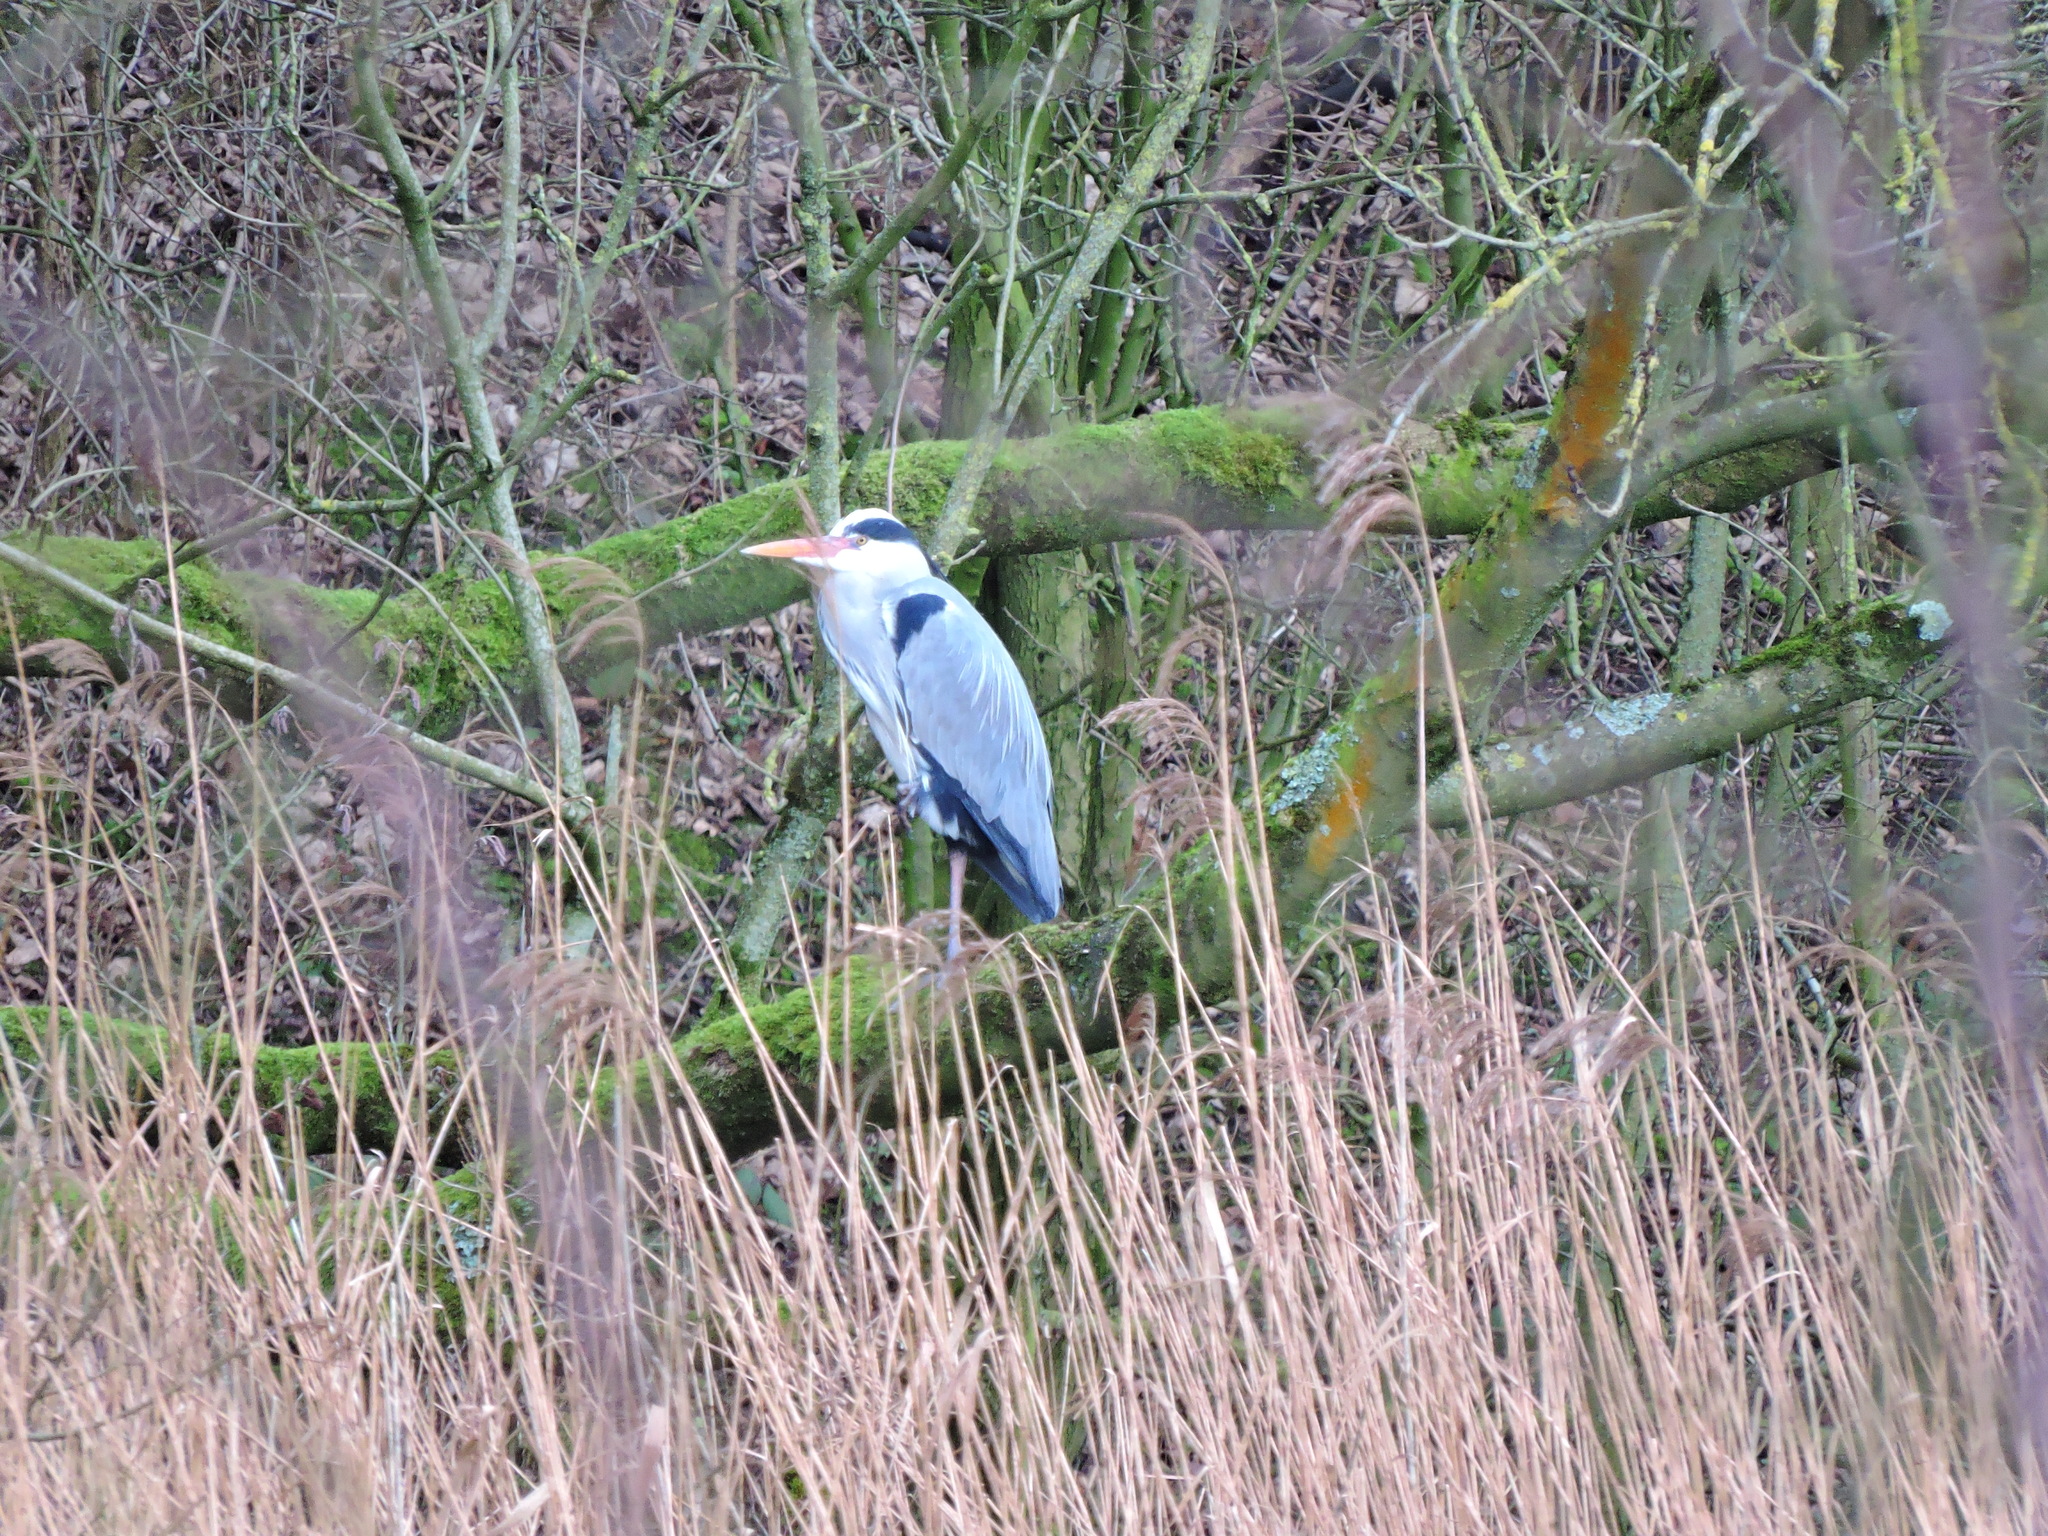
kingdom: Animalia
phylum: Chordata
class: Aves
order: Pelecaniformes
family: Ardeidae
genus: Ardea
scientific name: Ardea cinerea
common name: Grey heron
